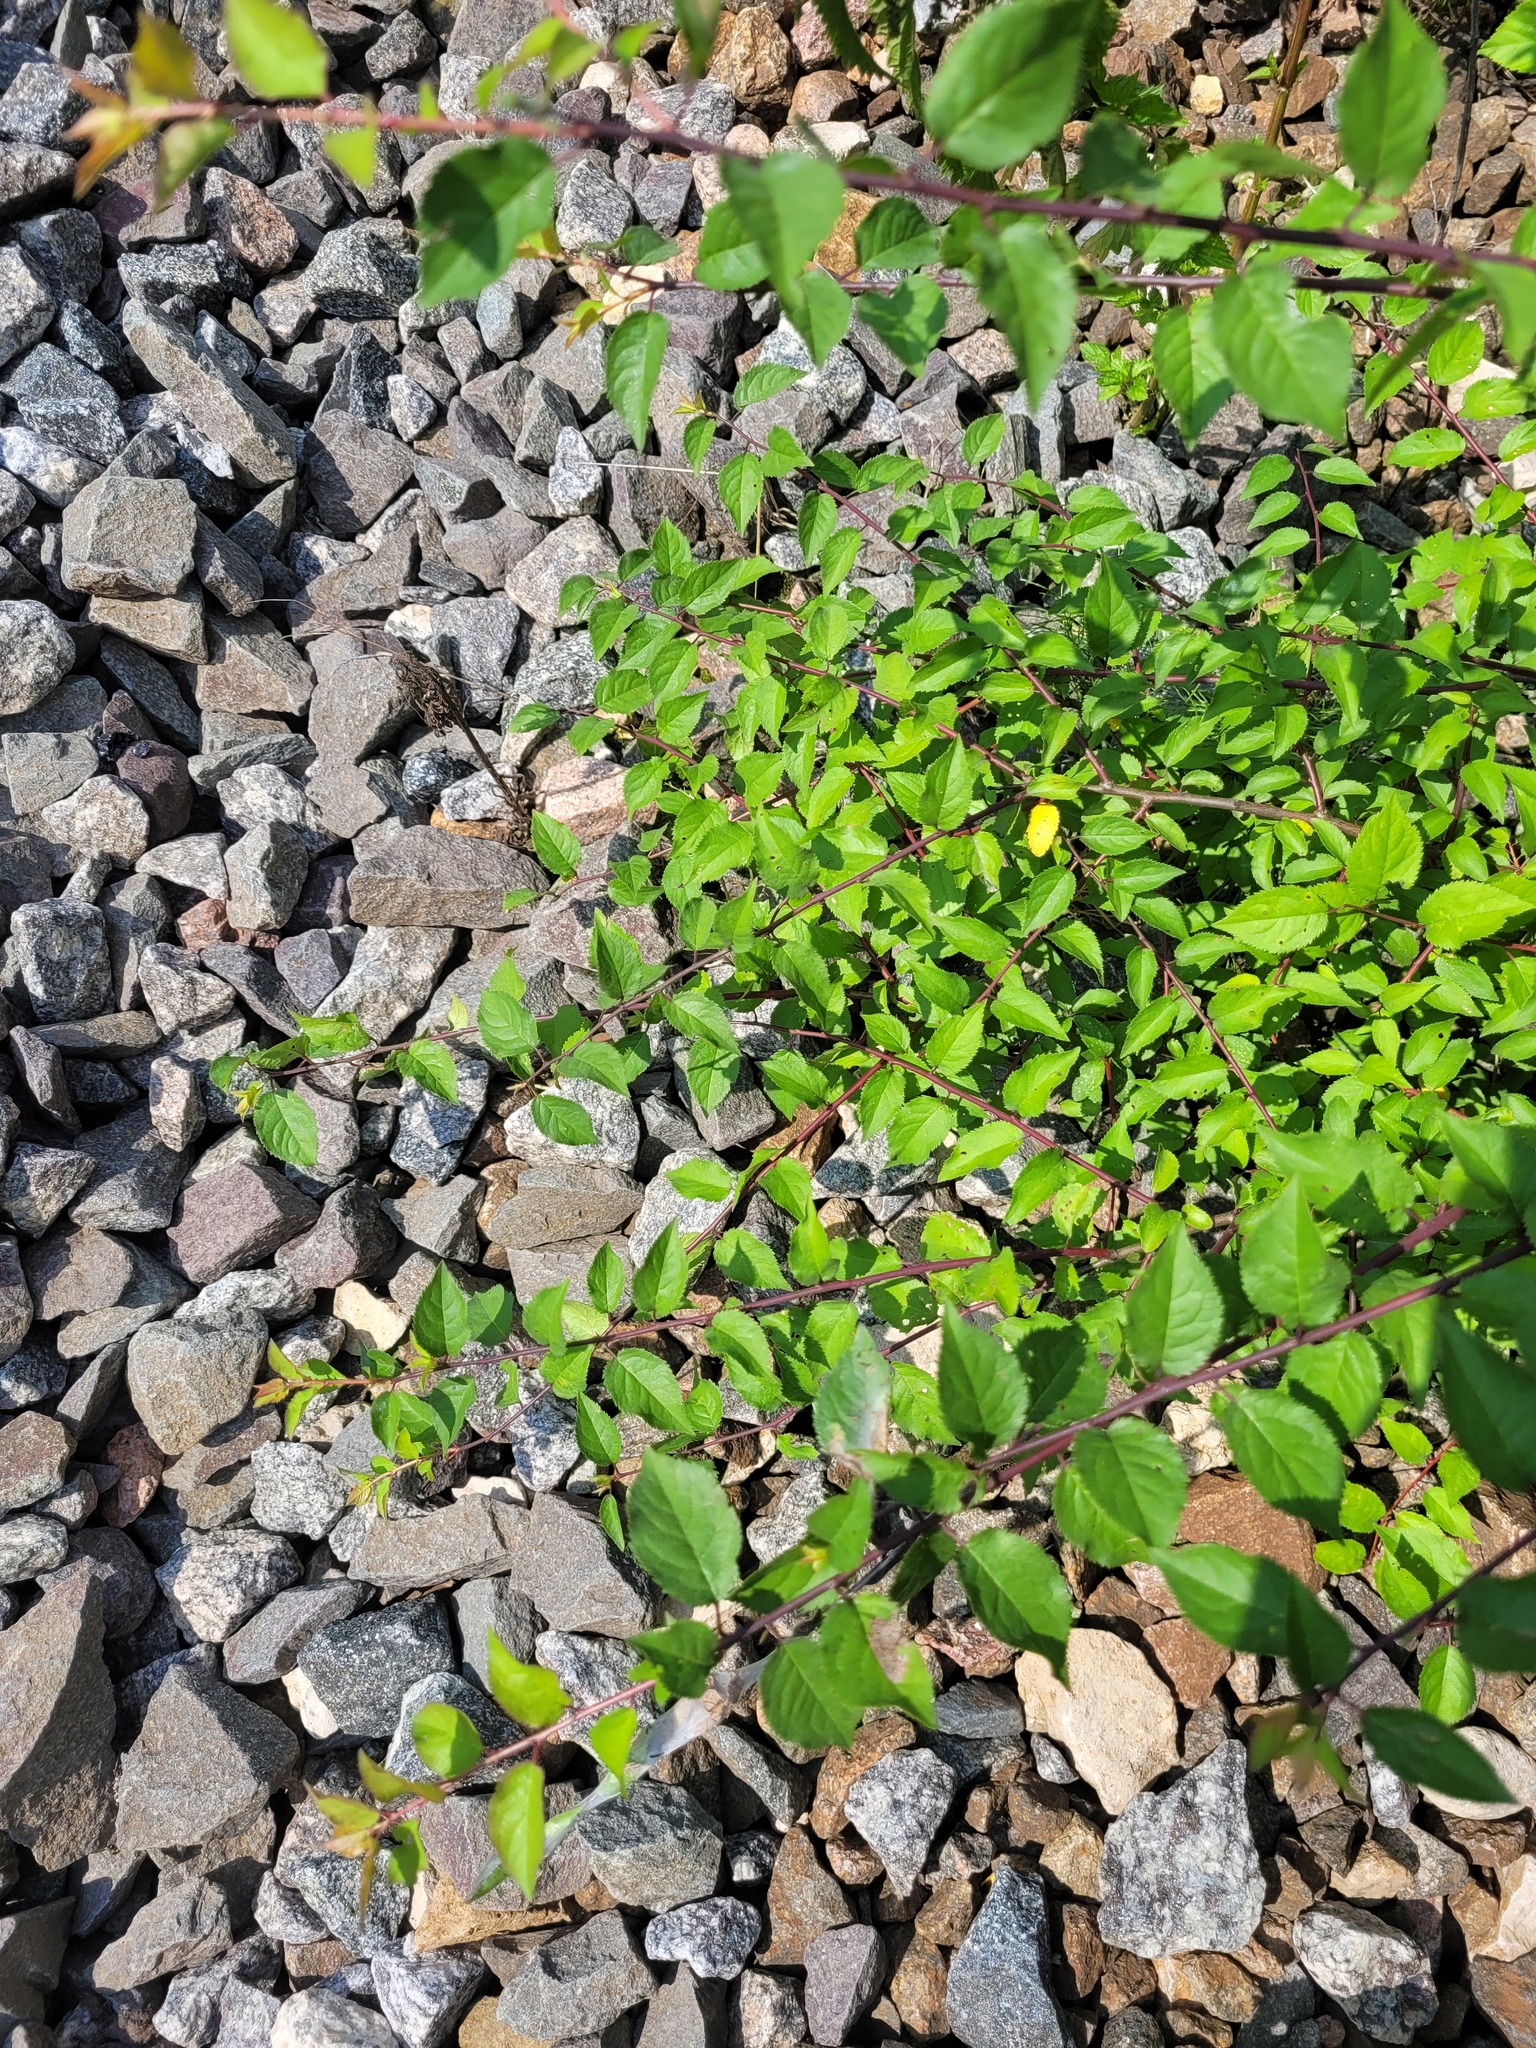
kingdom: Plantae
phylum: Tracheophyta
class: Magnoliopsida
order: Rosales
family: Rosaceae
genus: Prunus
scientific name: Prunus cerasifera
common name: Cherry plum
